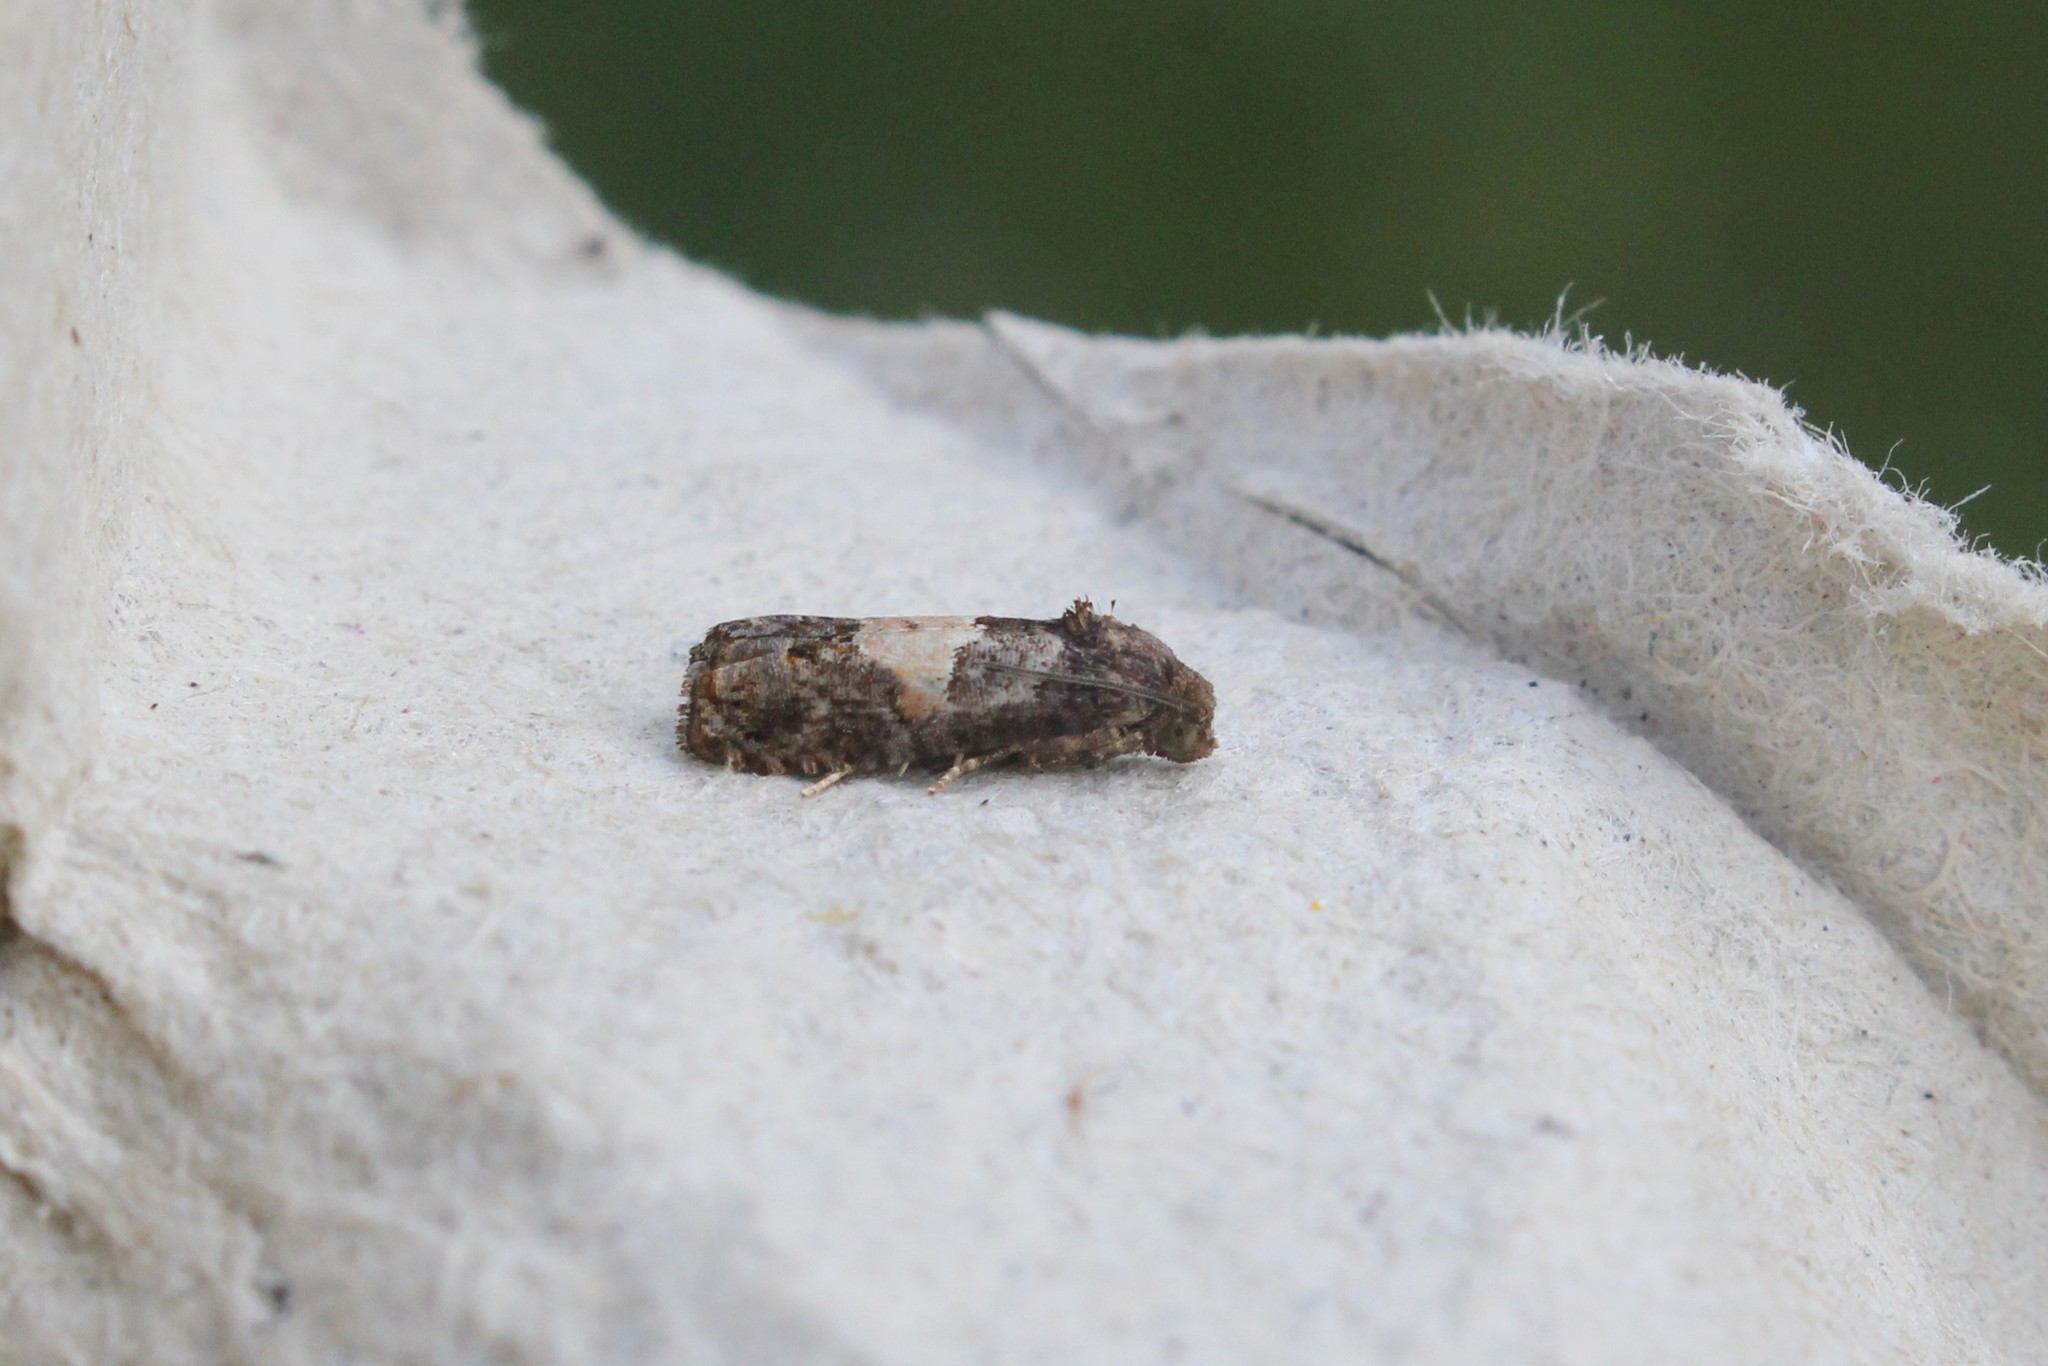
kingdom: Animalia
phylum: Arthropoda
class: Insecta
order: Lepidoptera
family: Tortricidae
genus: Epiblema
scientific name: Epiblema glenni
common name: Glenn's epiblema
